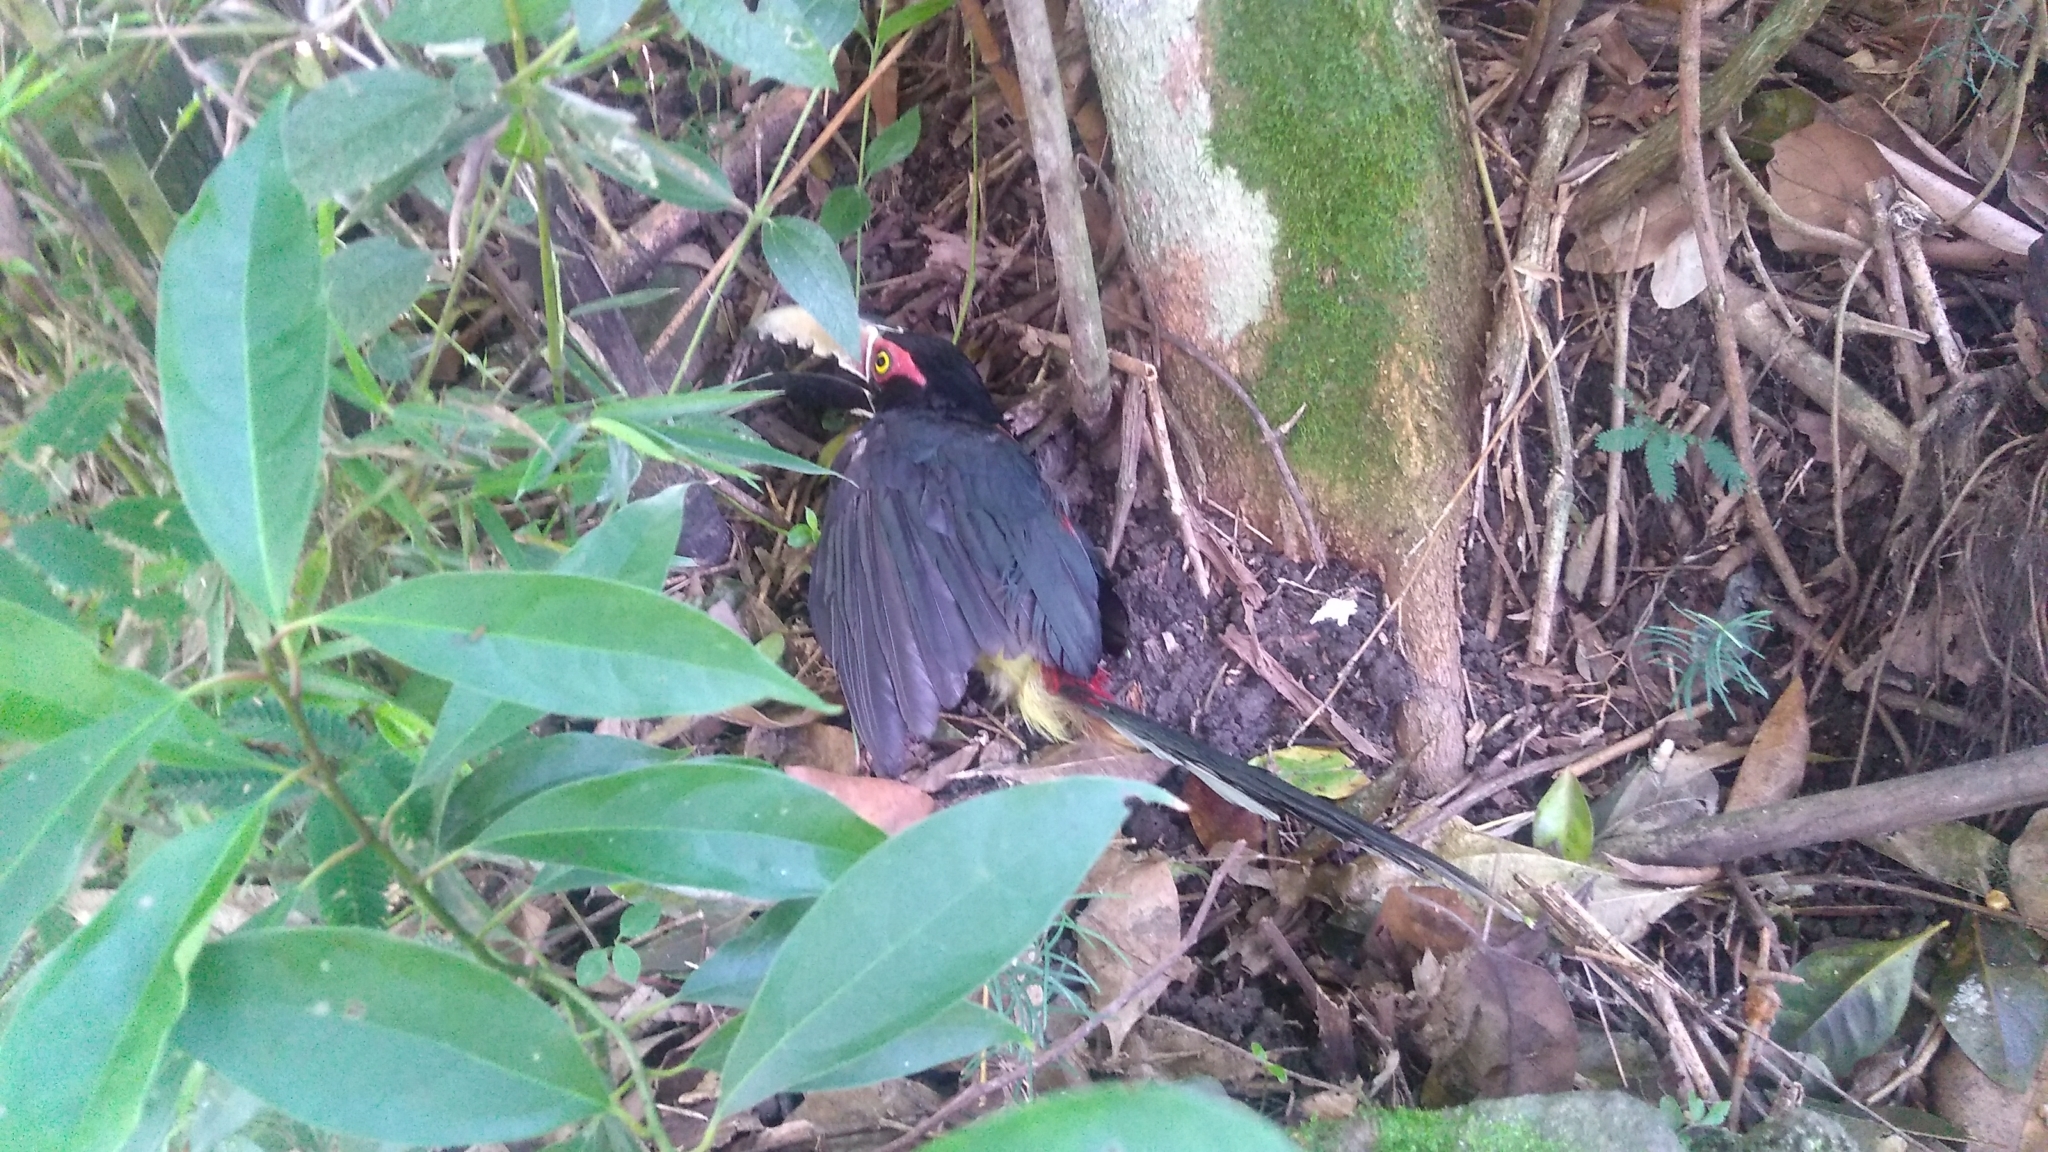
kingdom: Animalia
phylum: Chordata
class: Aves
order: Piciformes
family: Ramphastidae
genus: Pteroglossus
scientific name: Pteroglossus torquatus
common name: Collared aracari
